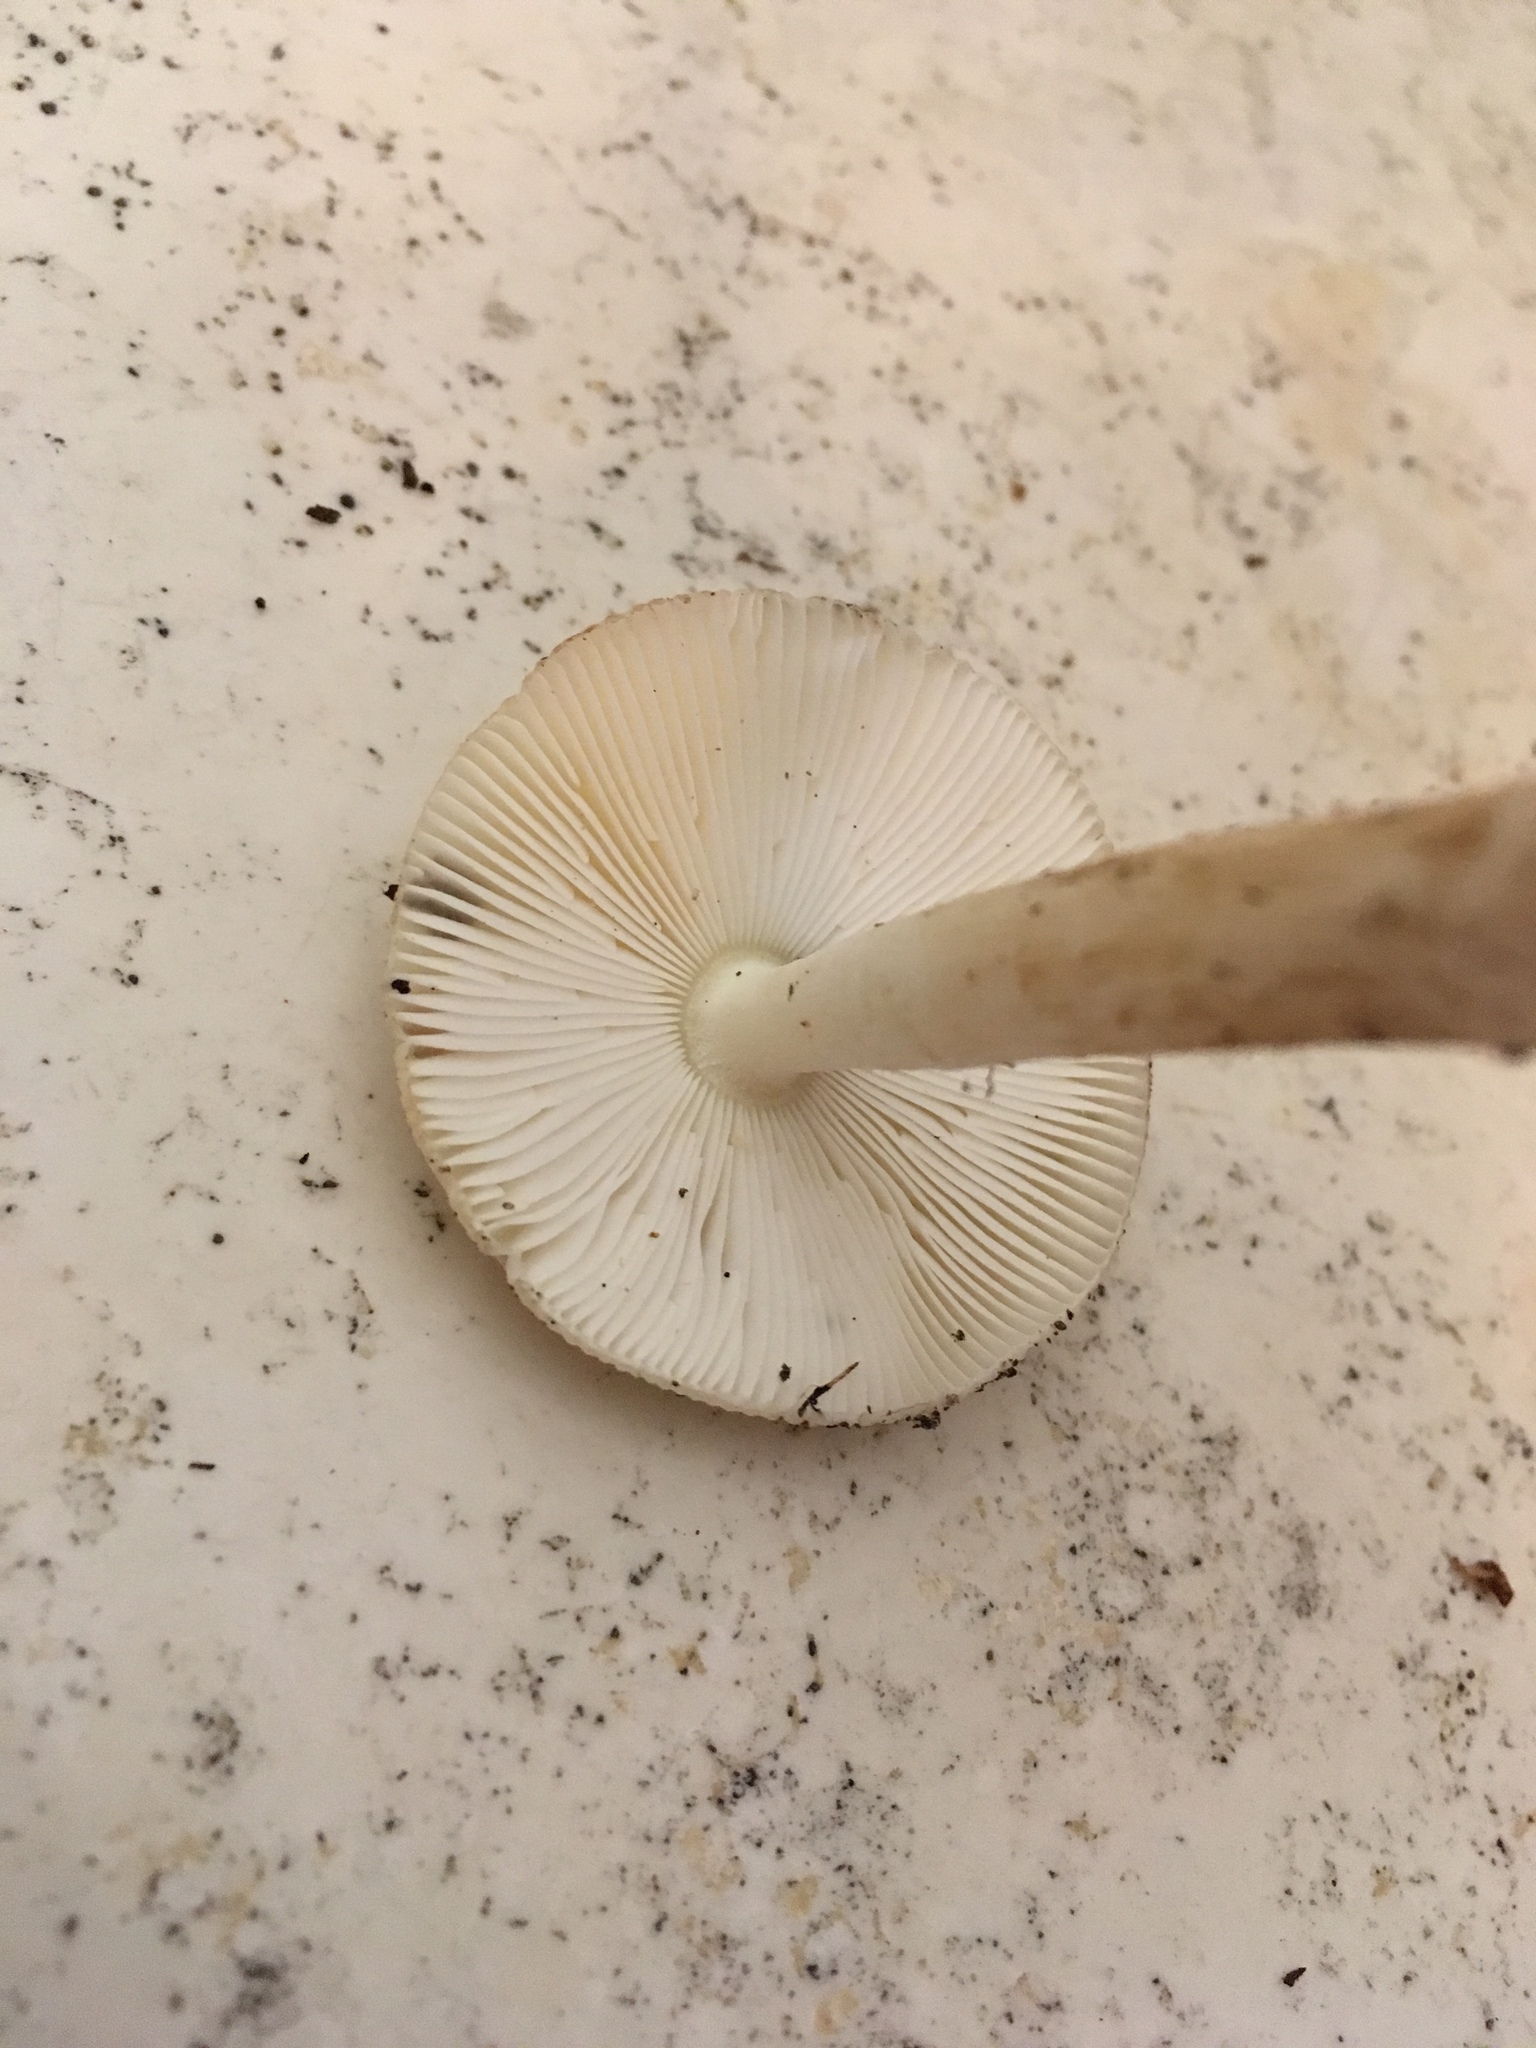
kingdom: Fungi
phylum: Basidiomycota
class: Agaricomycetes
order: Agaricales
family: Amanitaceae
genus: Amanita
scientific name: Amanita russuloides
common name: Russula-like amanita
